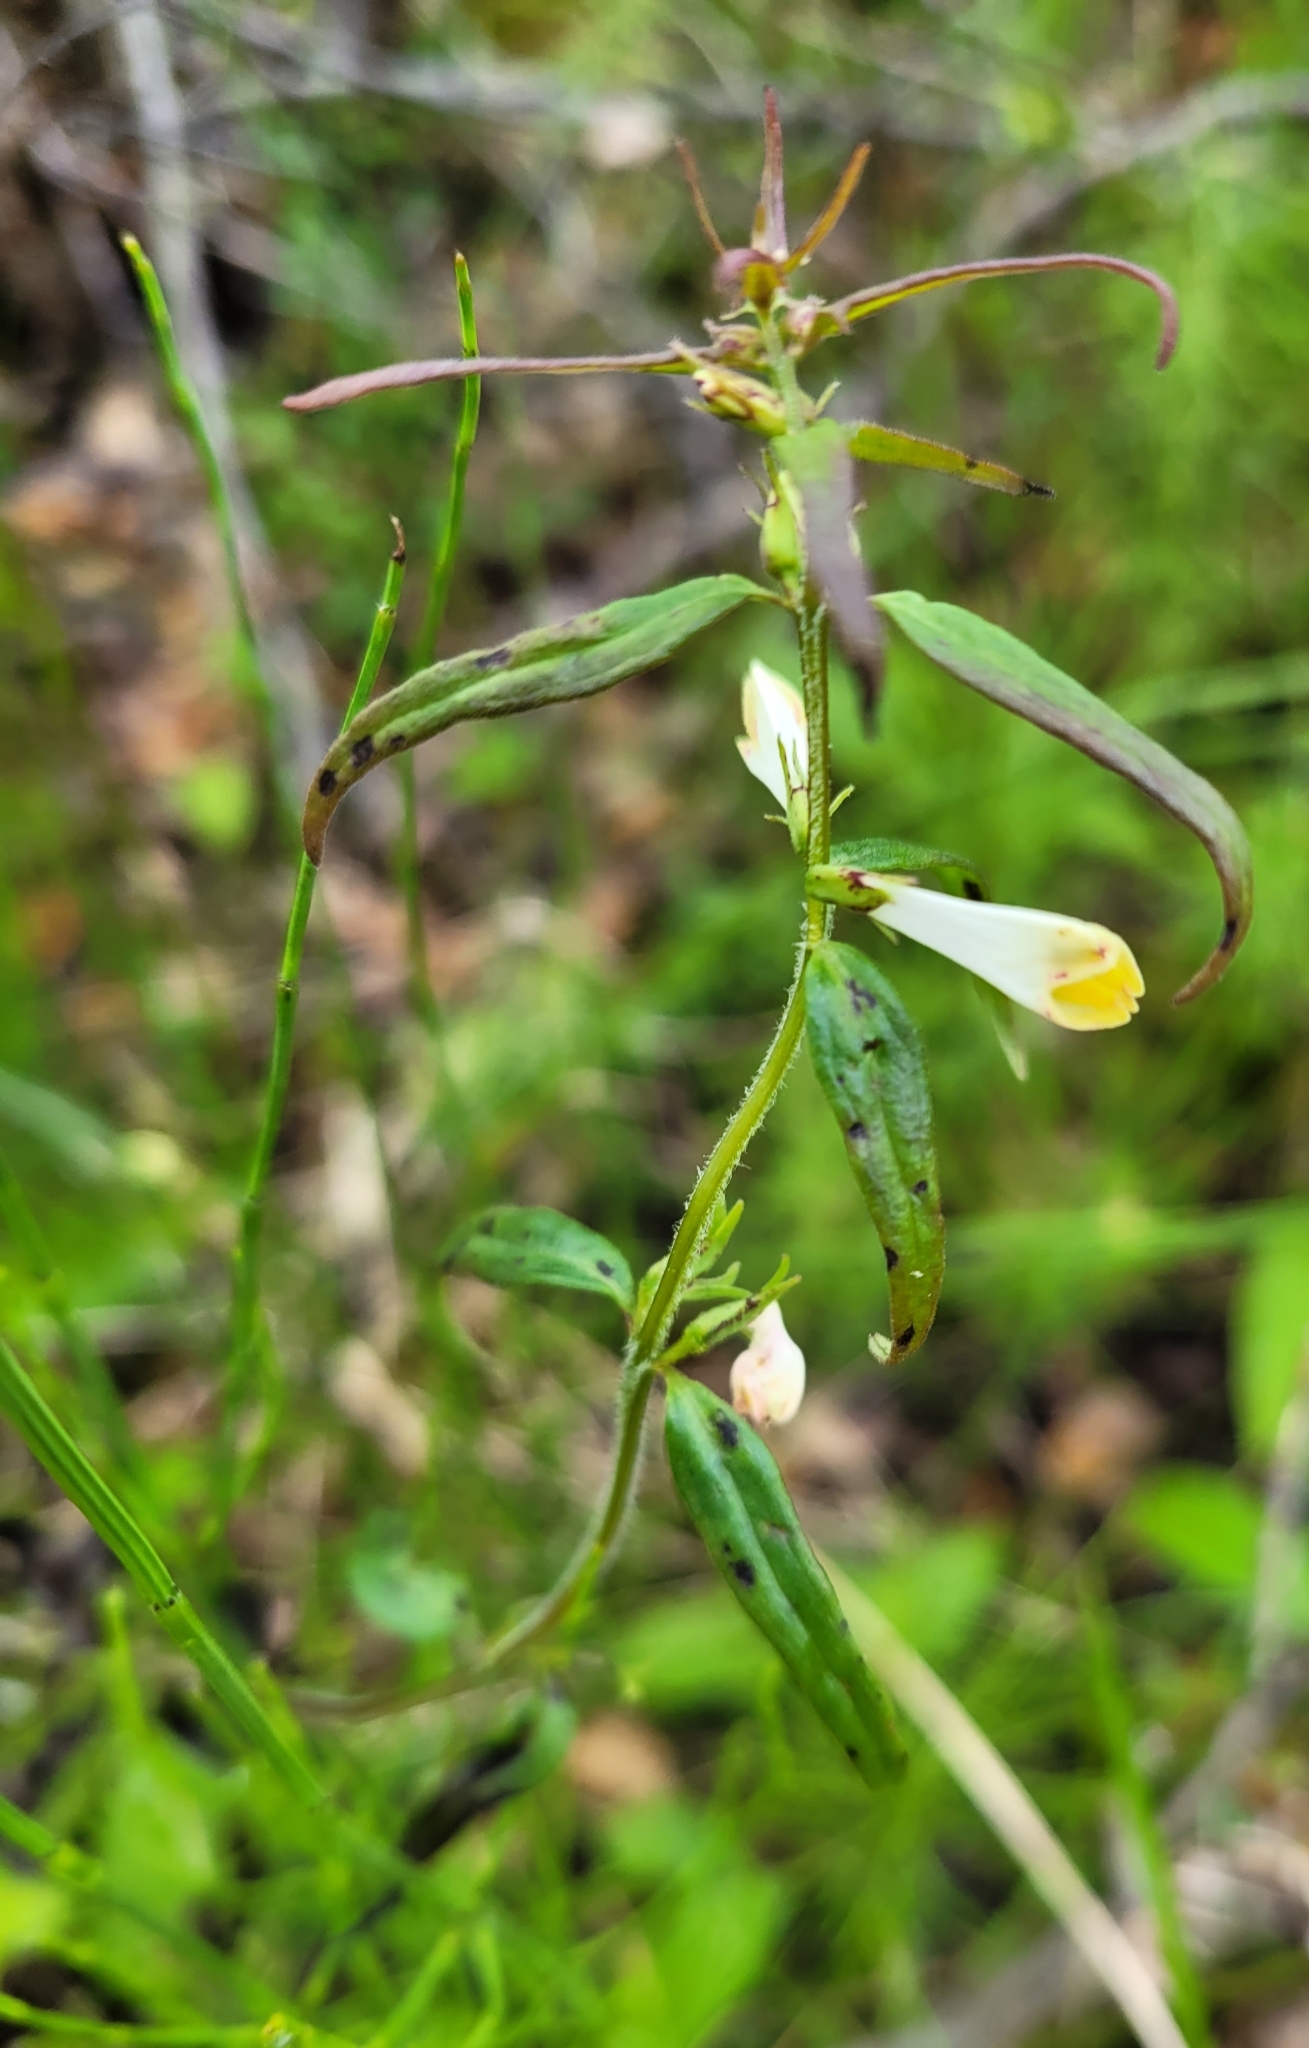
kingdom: Plantae
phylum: Tracheophyta
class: Magnoliopsida
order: Lamiales
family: Orobanchaceae
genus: Melampyrum
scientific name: Melampyrum pratense
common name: Common cow-wheat
